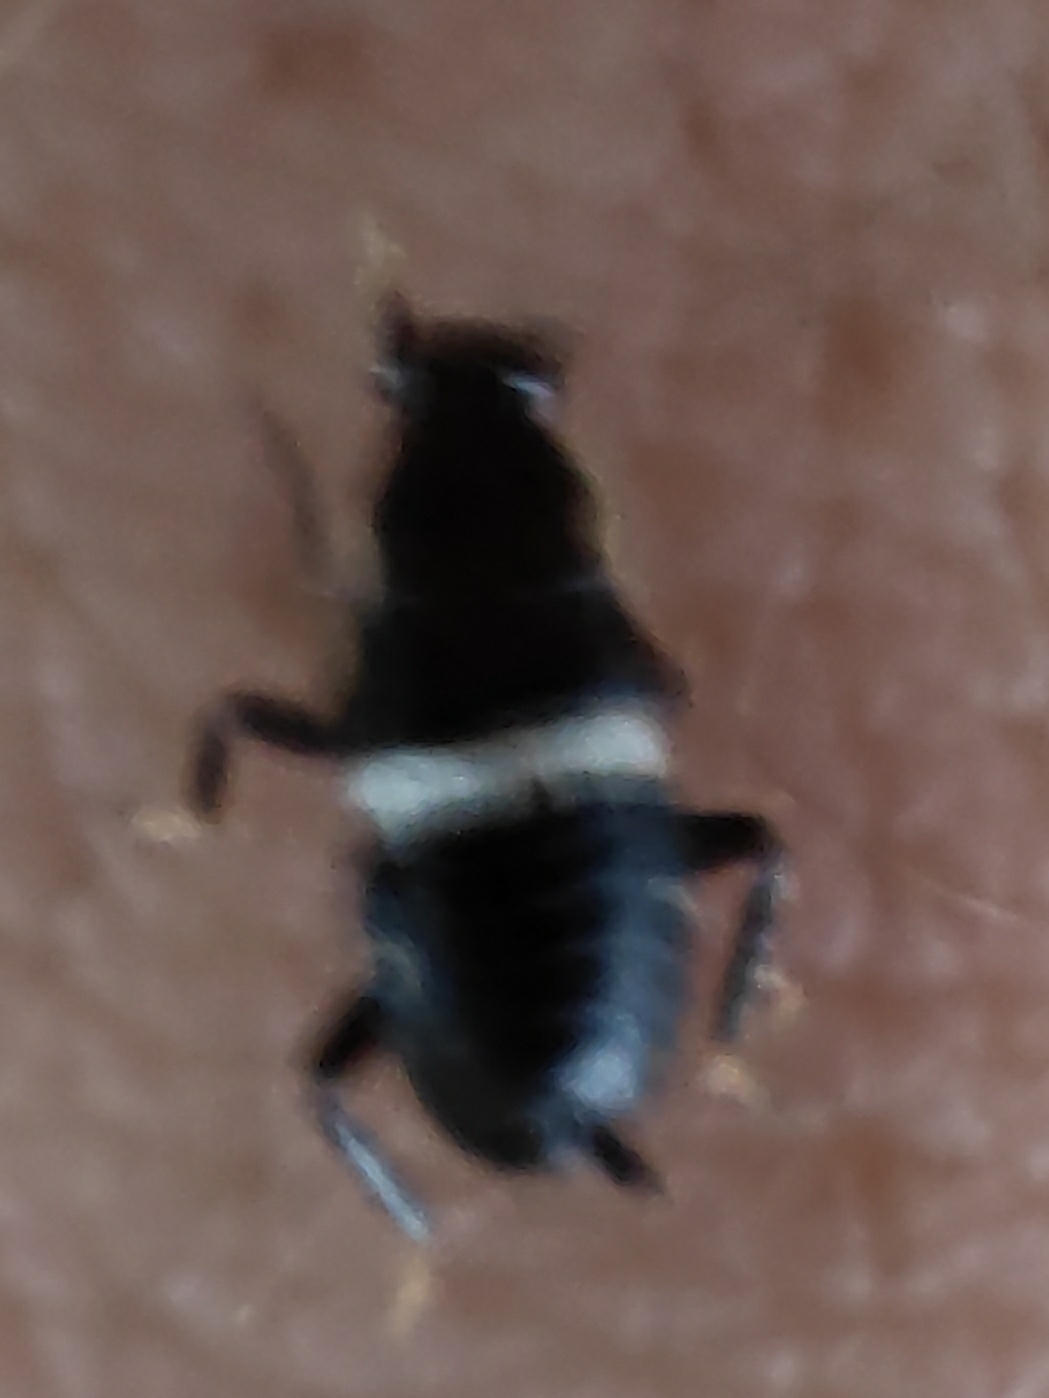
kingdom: Animalia
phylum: Arthropoda
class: Insecta
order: Blattodea
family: Ectobiidae
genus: Planuncus
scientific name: Planuncus vinzi
